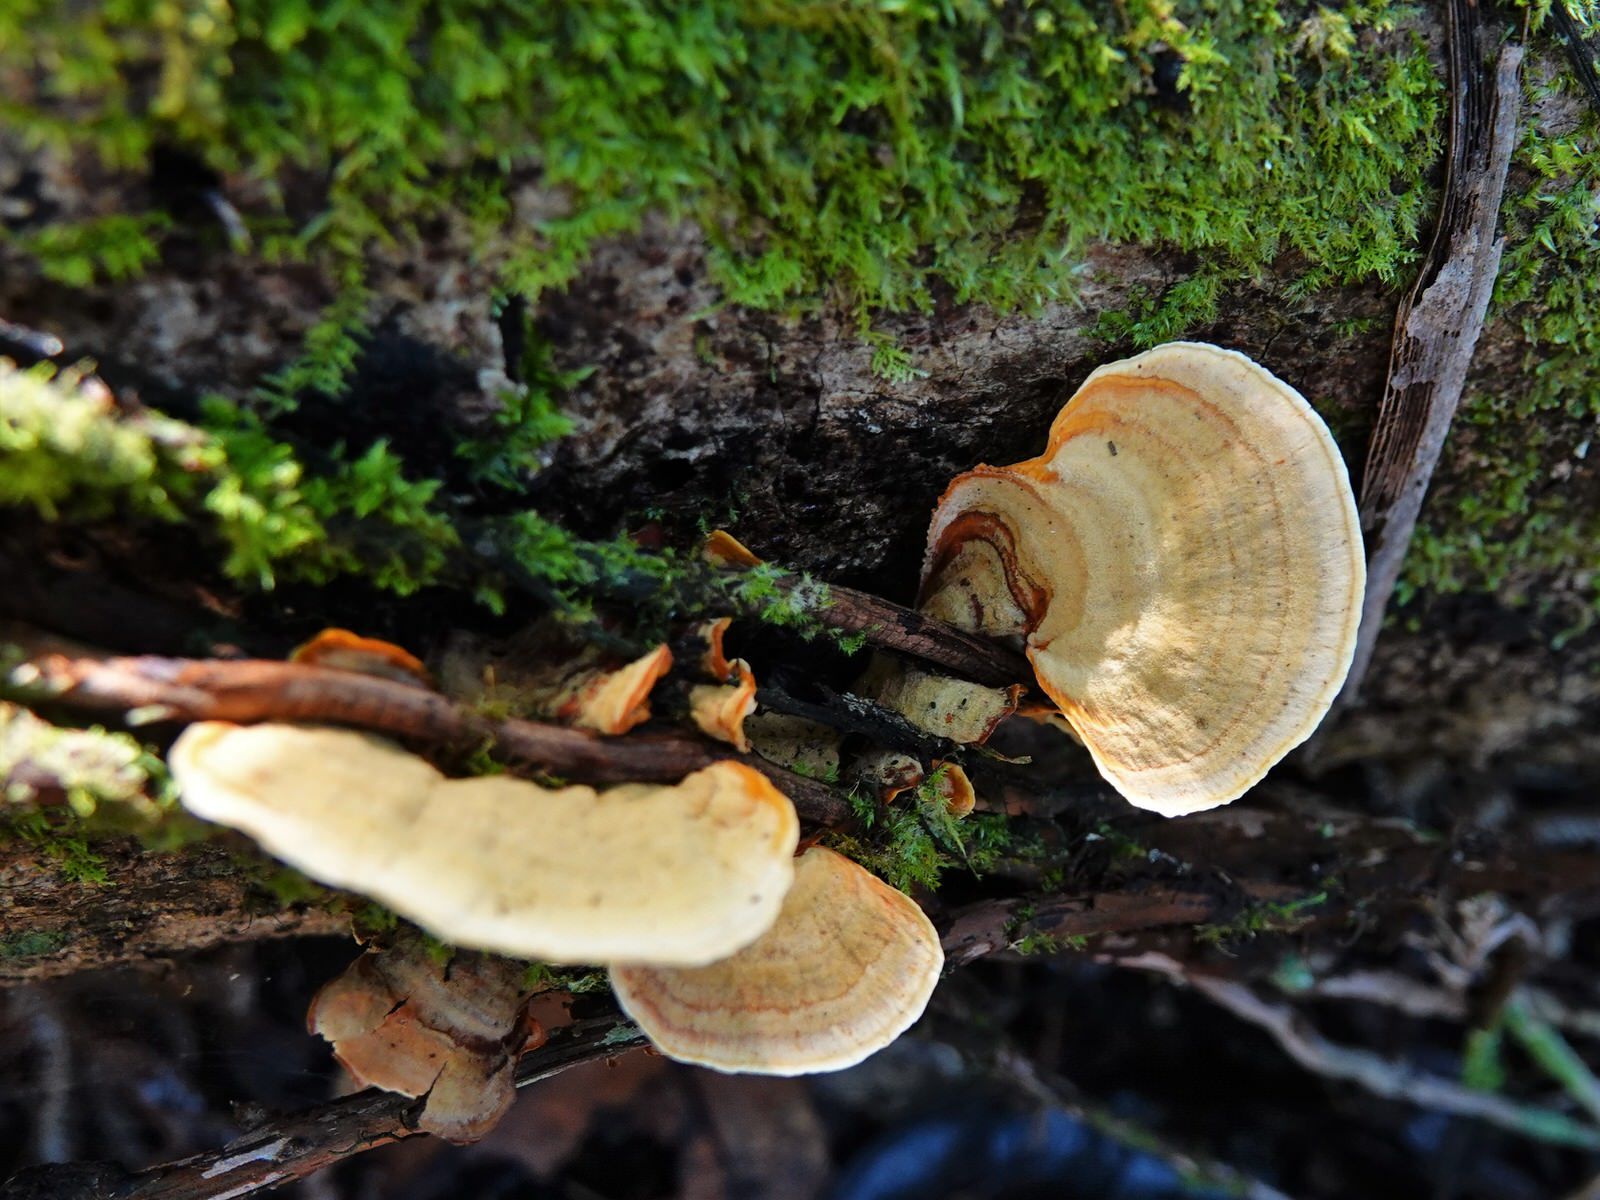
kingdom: Fungi
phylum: Basidiomycota
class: Agaricomycetes
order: Russulales
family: Stereaceae
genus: Stereum
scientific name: Stereum versicolor
